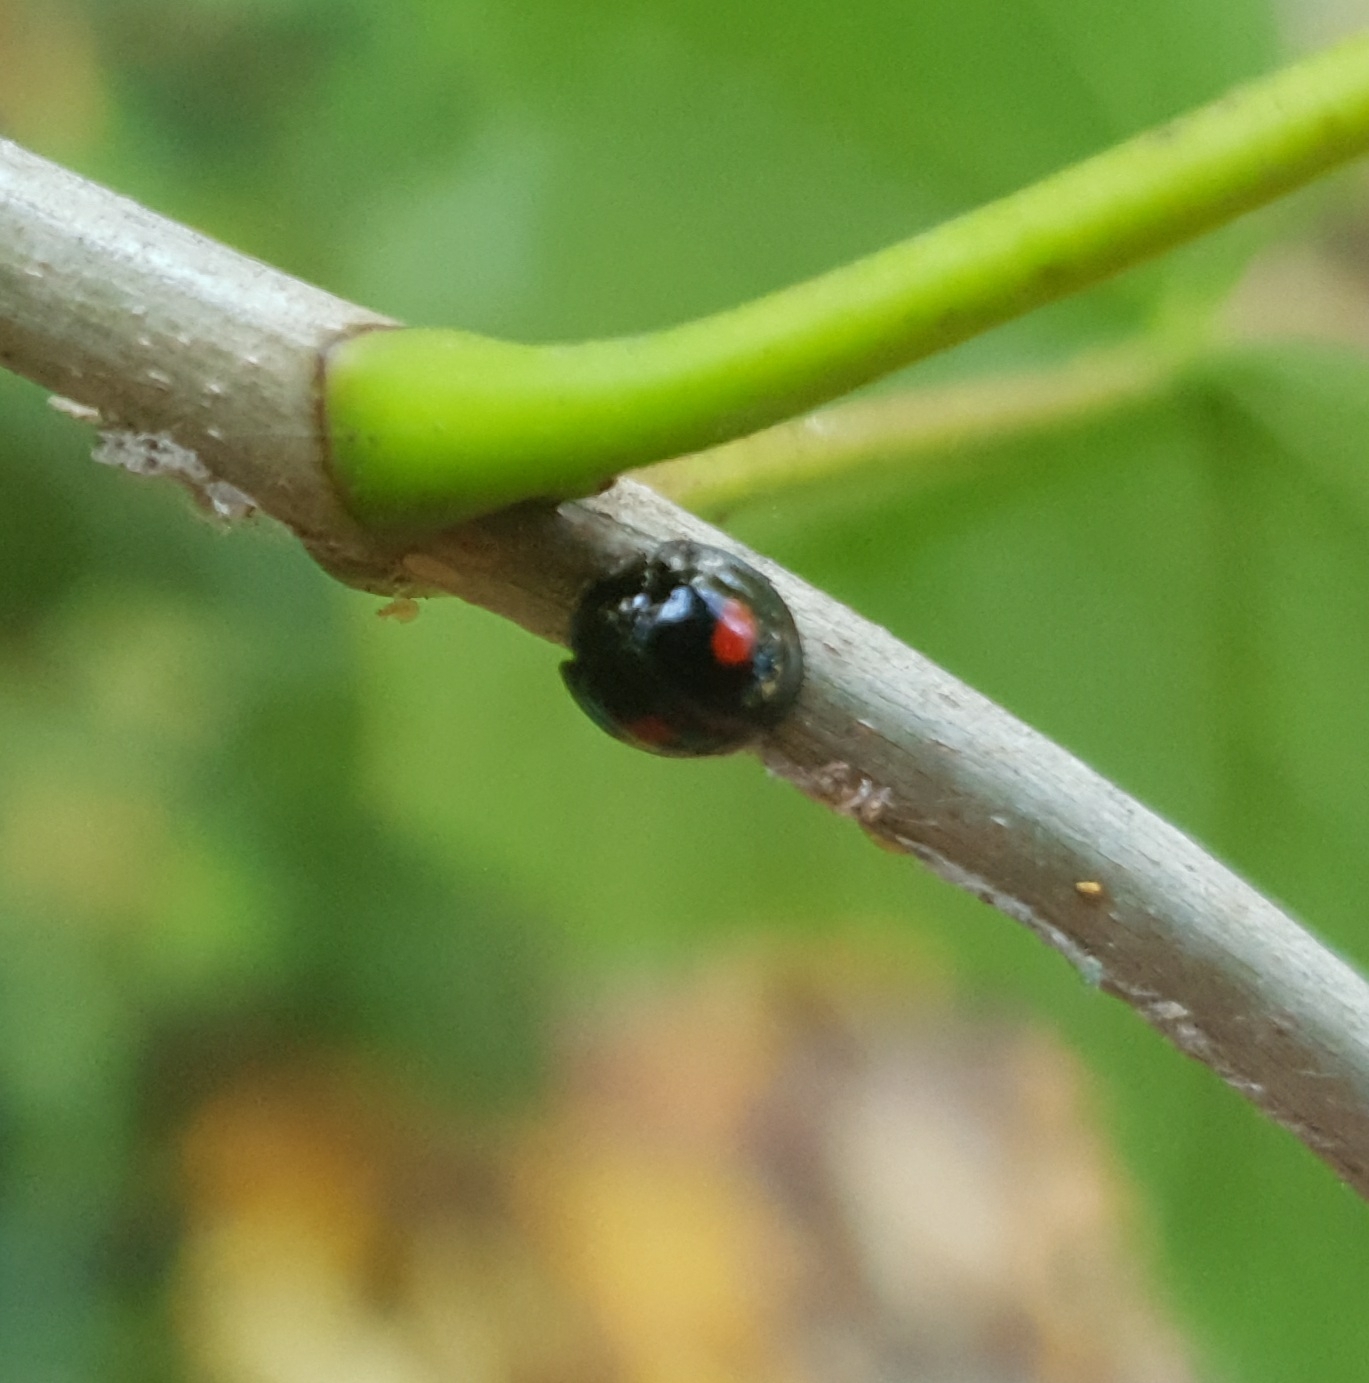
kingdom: Animalia
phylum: Arthropoda
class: Insecta
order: Coleoptera
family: Coccinellidae
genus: Chilocorus
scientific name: Chilocorus renipustulatus
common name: Kidney-spot ladybird
